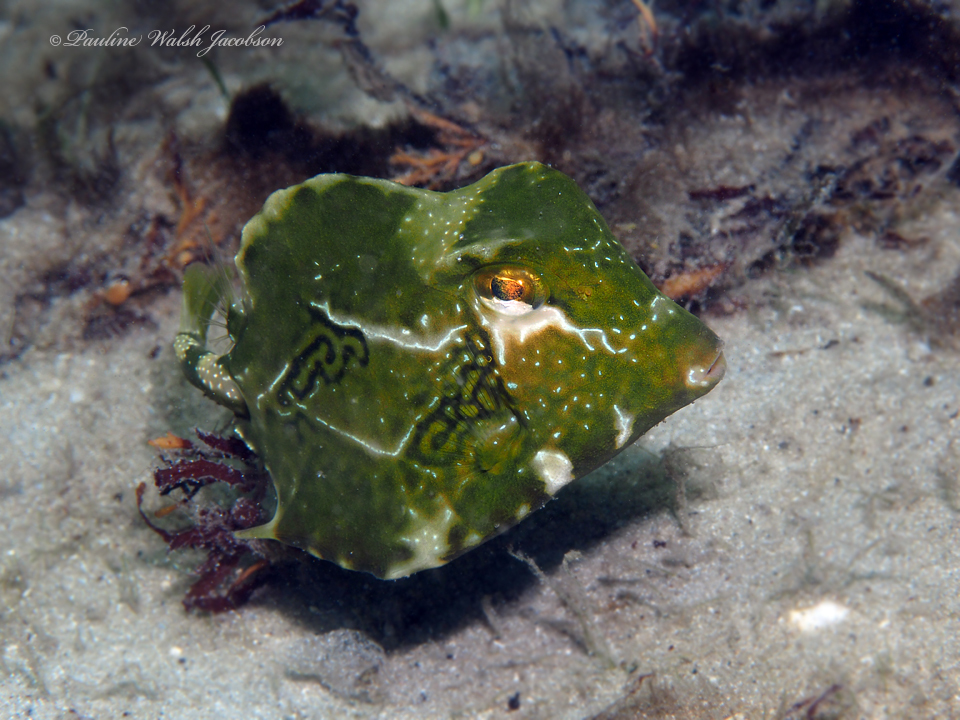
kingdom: Animalia
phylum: Chordata
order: Tetraodontiformes
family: Ostraciidae
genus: Lactophrys
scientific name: Lactophrys trigonus
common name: Buffalo trunkfish
